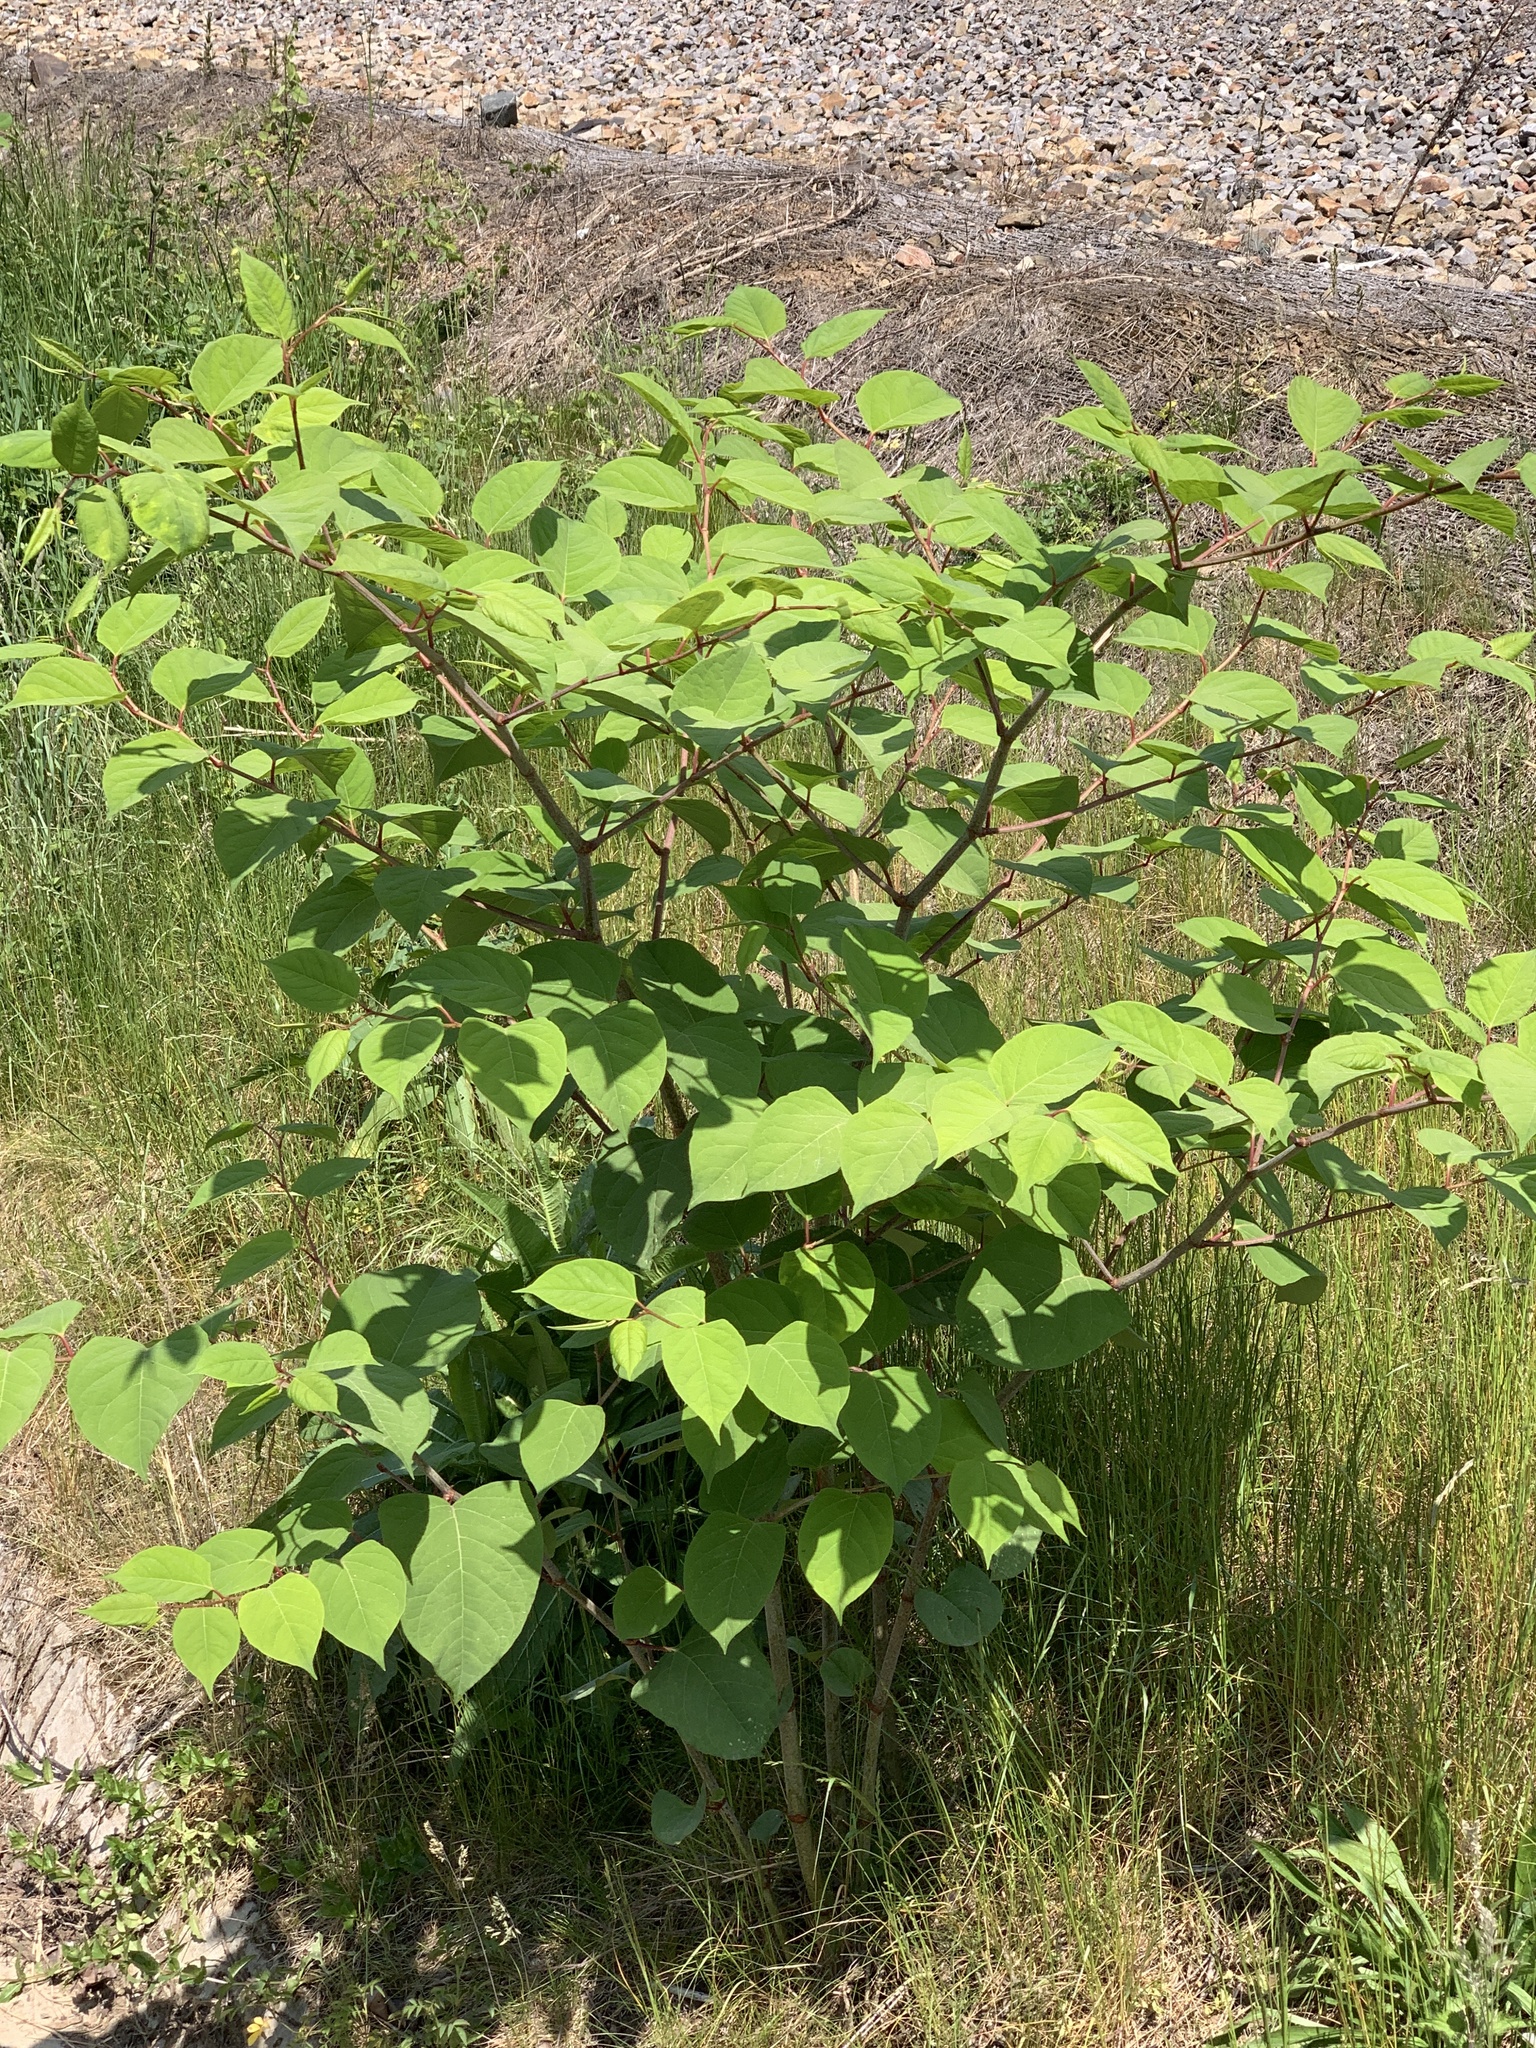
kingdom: Plantae
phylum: Tracheophyta
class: Magnoliopsida
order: Caryophyllales
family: Polygonaceae
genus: Reynoutria
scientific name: Reynoutria japonica
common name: Japanese knotweed
